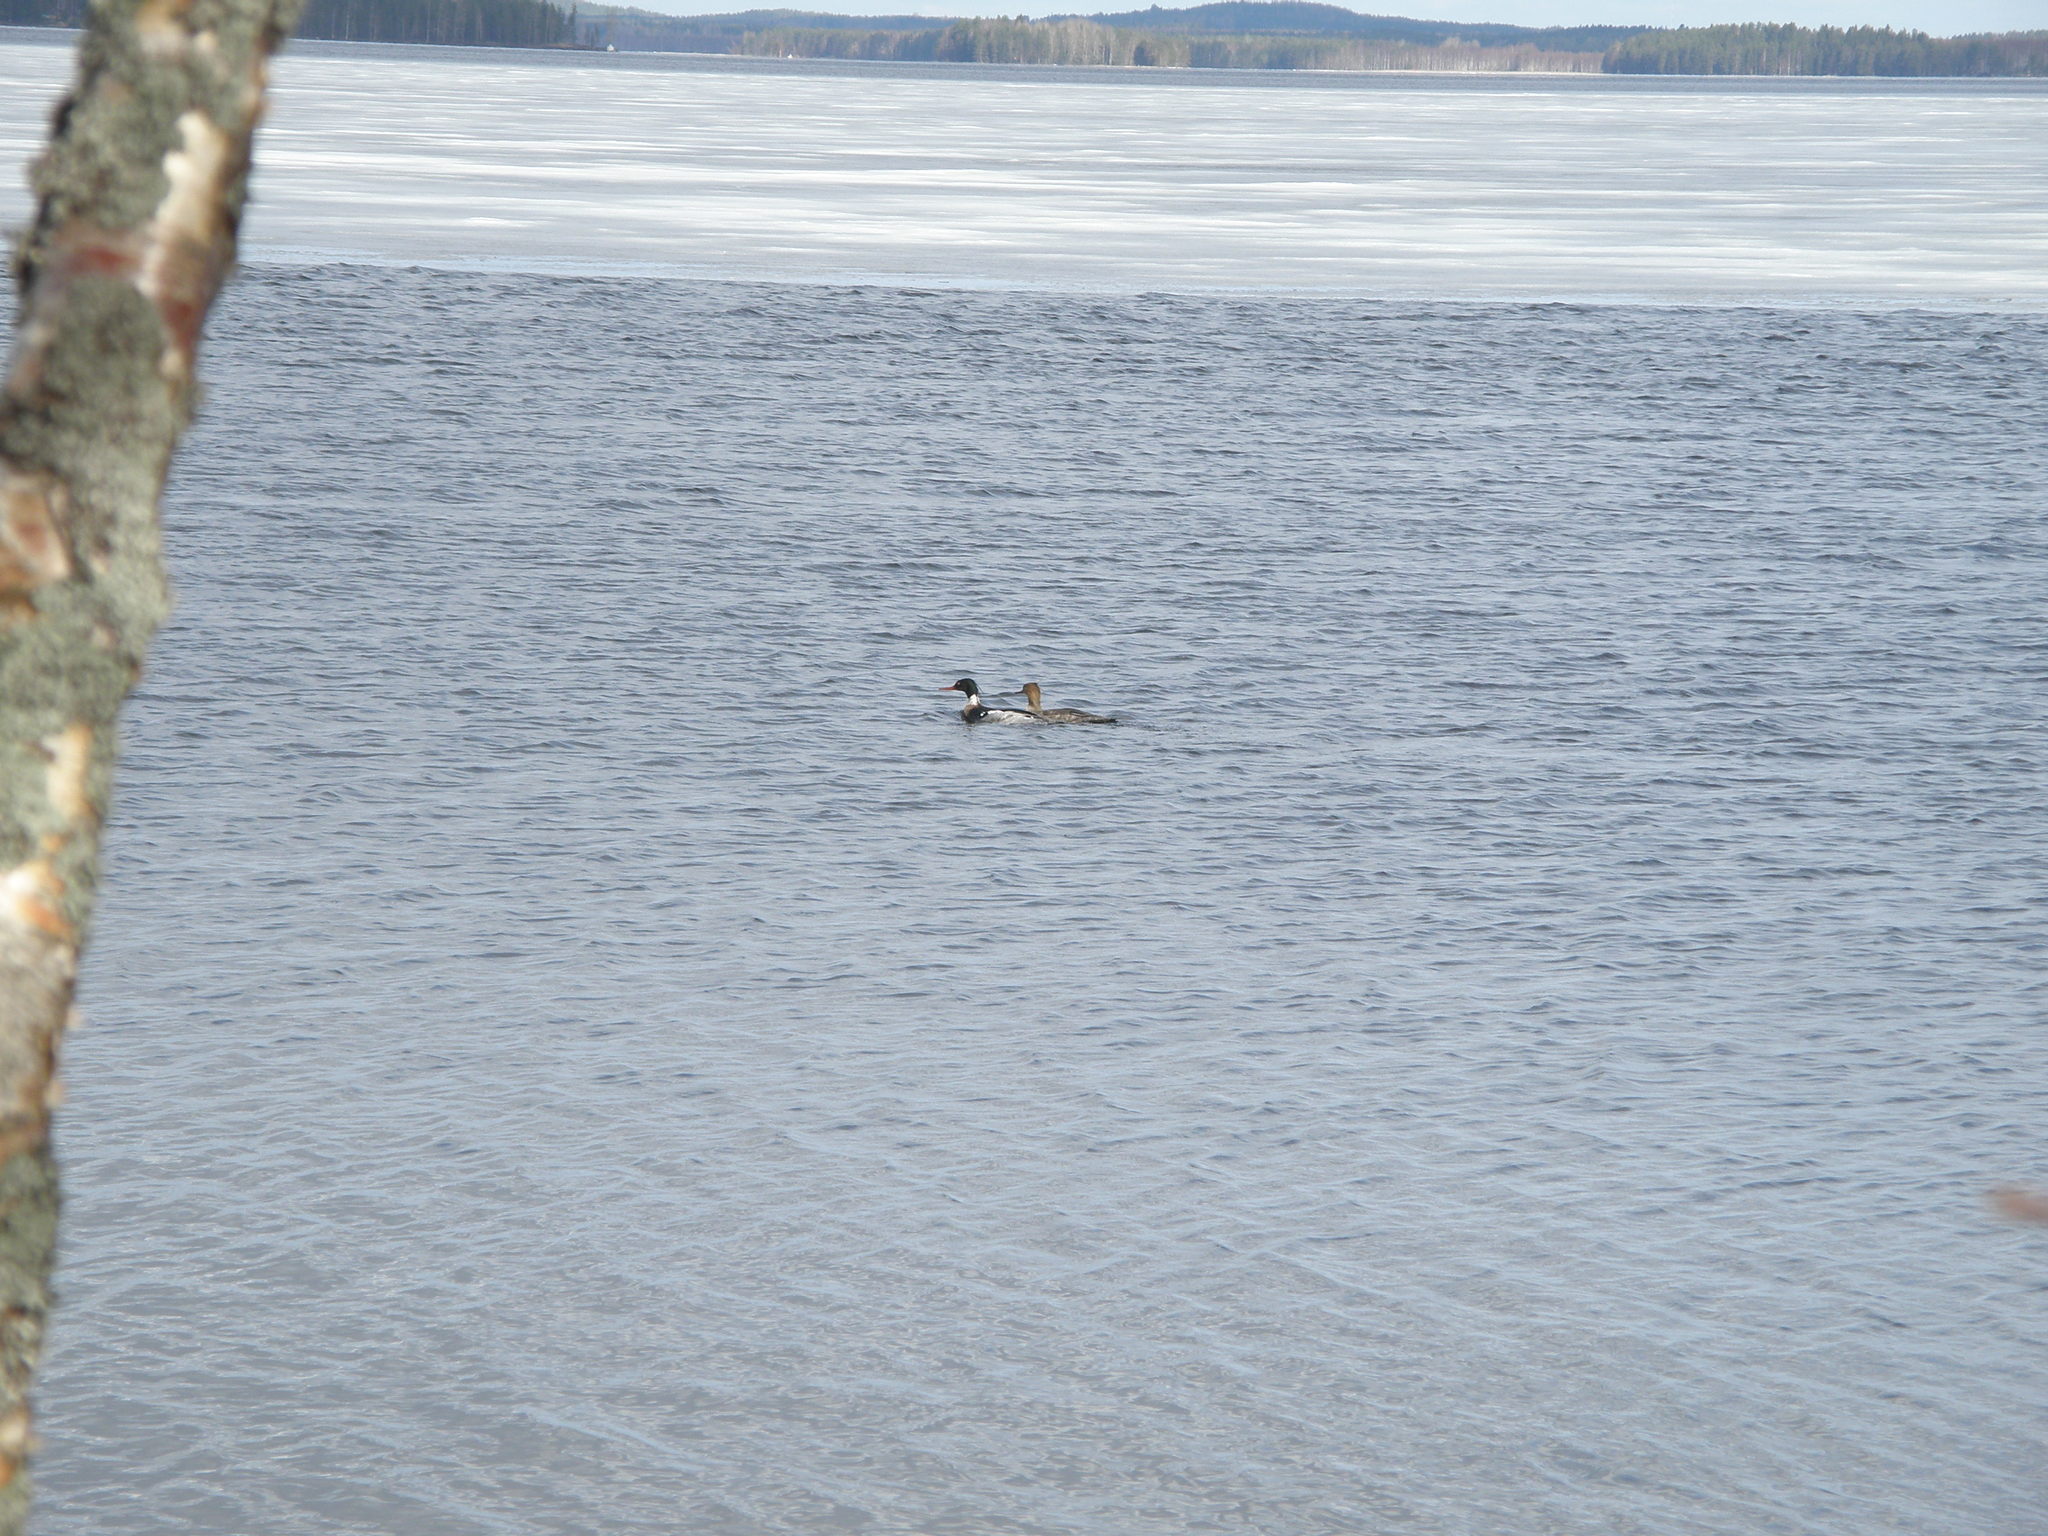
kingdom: Animalia
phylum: Chordata
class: Aves
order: Anseriformes
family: Anatidae
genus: Mergus
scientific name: Mergus serrator
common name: Red-breasted merganser
